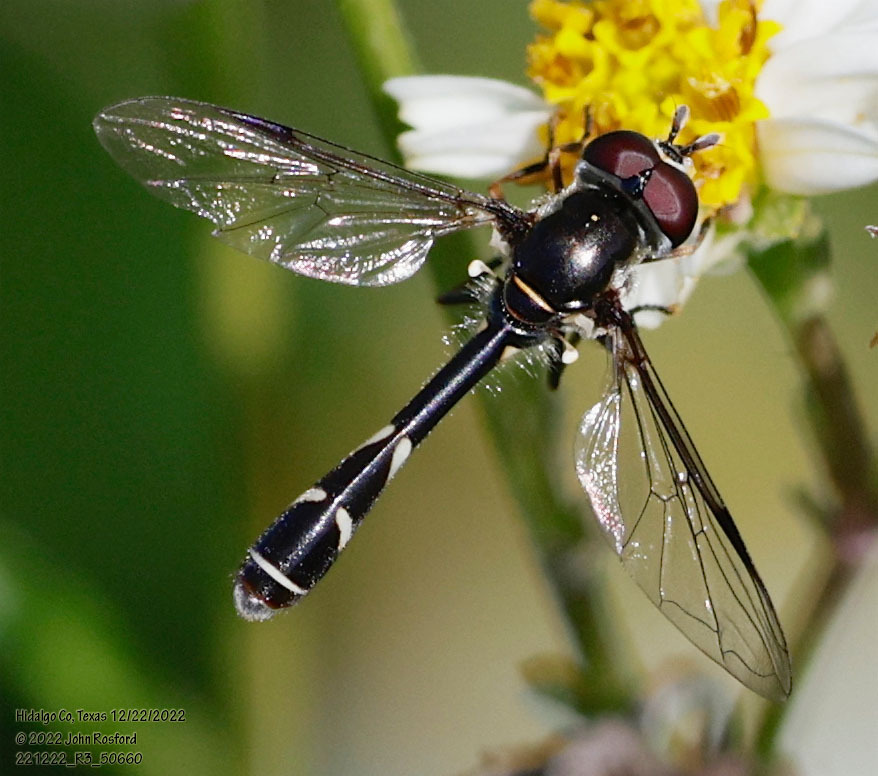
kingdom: Animalia
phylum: Arthropoda
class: Insecta
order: Diptera
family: Syrphidae
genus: Dioprosopa
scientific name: Dioprosopa clavatus
